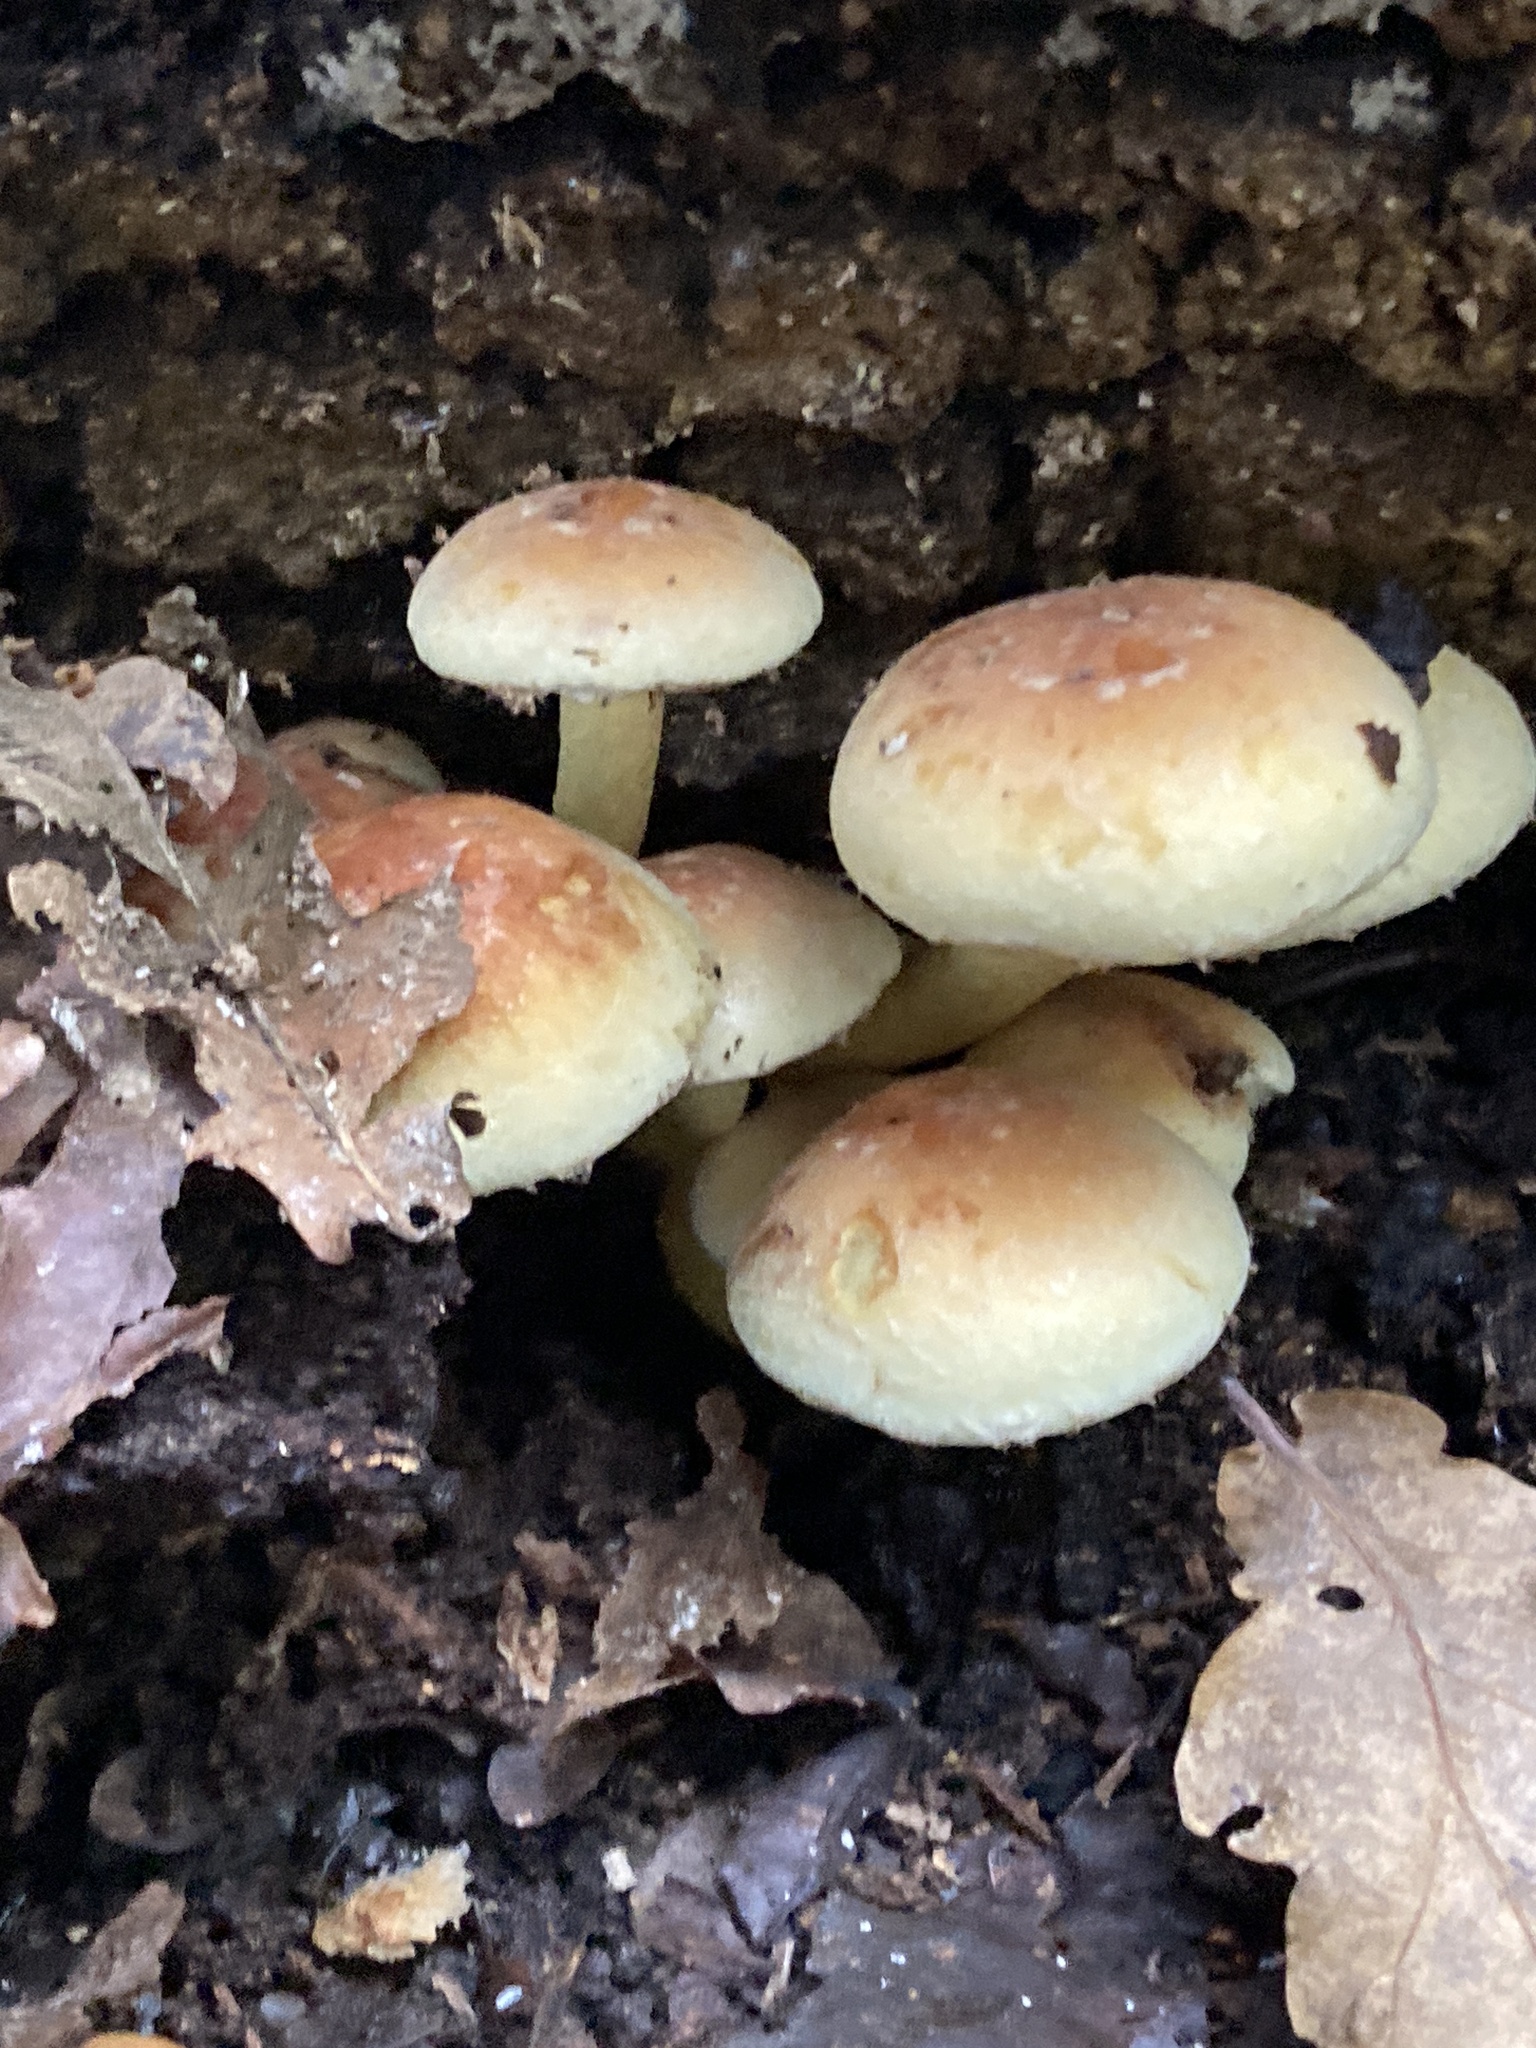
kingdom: Fungi
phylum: Basidiomycota
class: Agaricomycetes
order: Agaricales
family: Strophariaceae
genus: Hypholoma
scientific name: Hypholoma fasciculare
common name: Sulphur tuft
